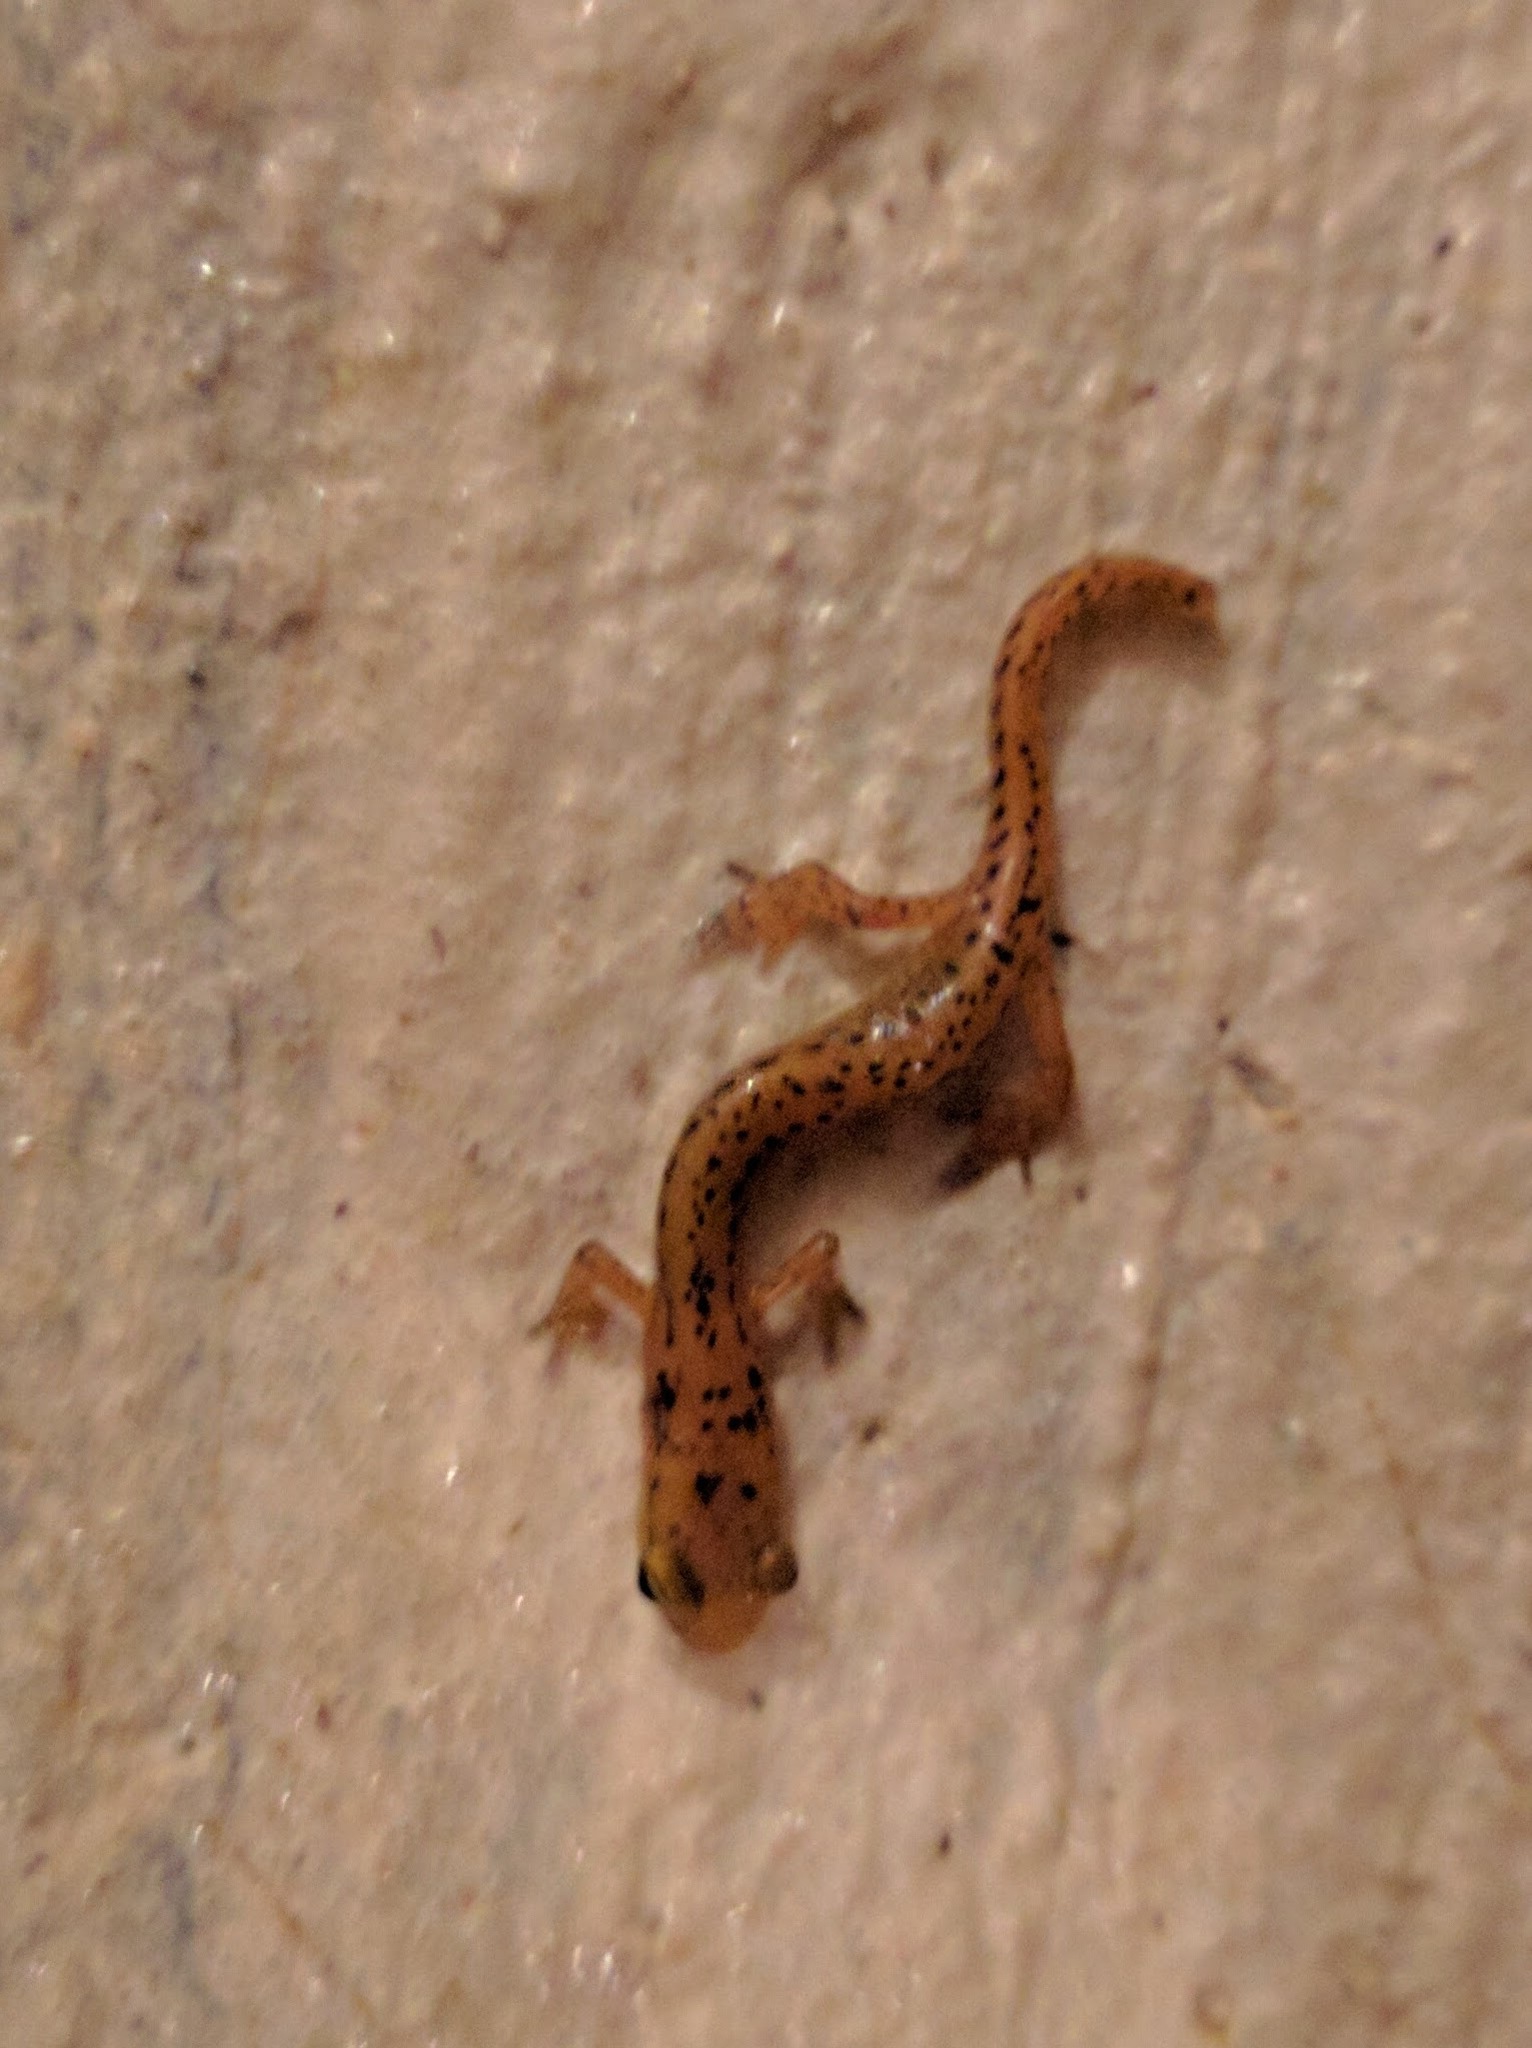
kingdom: Animalia
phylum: Chordata
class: Amphibia
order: Caudata
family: Plethodontidae
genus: Eurycea
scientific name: Eurycea longicauda
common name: Long-tailed salamander
